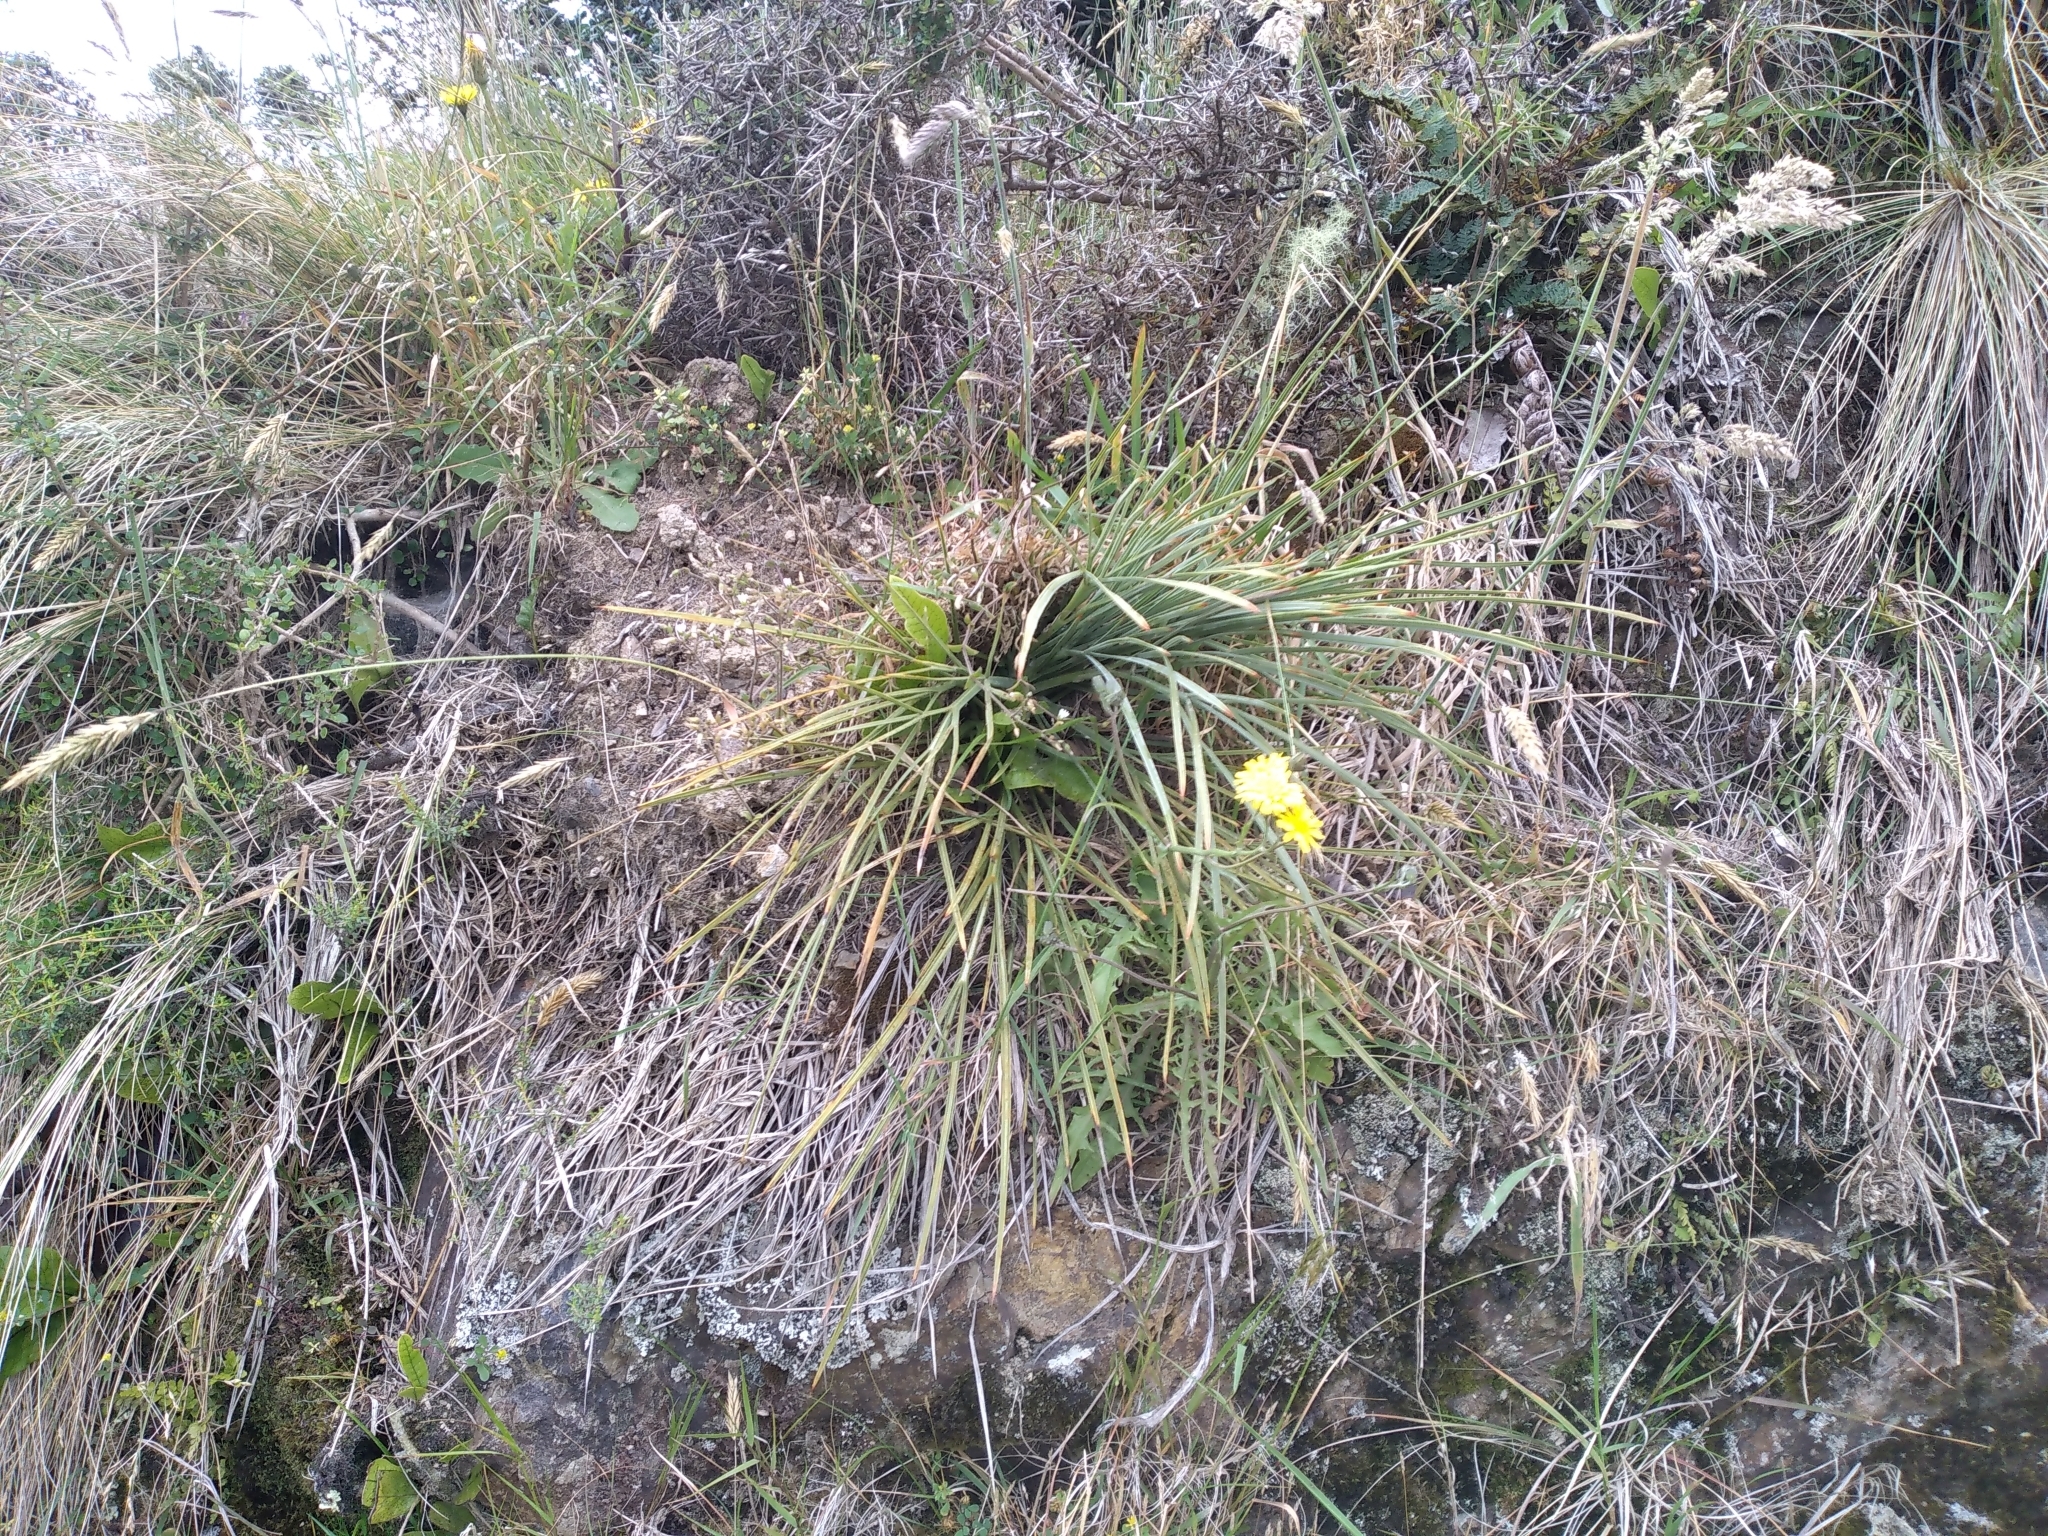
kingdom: Plantae
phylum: Tracheophyta
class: Magnoliopsida
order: Apiales
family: Apiaceae
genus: Aciphylla
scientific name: Aciphylla squarrosa
